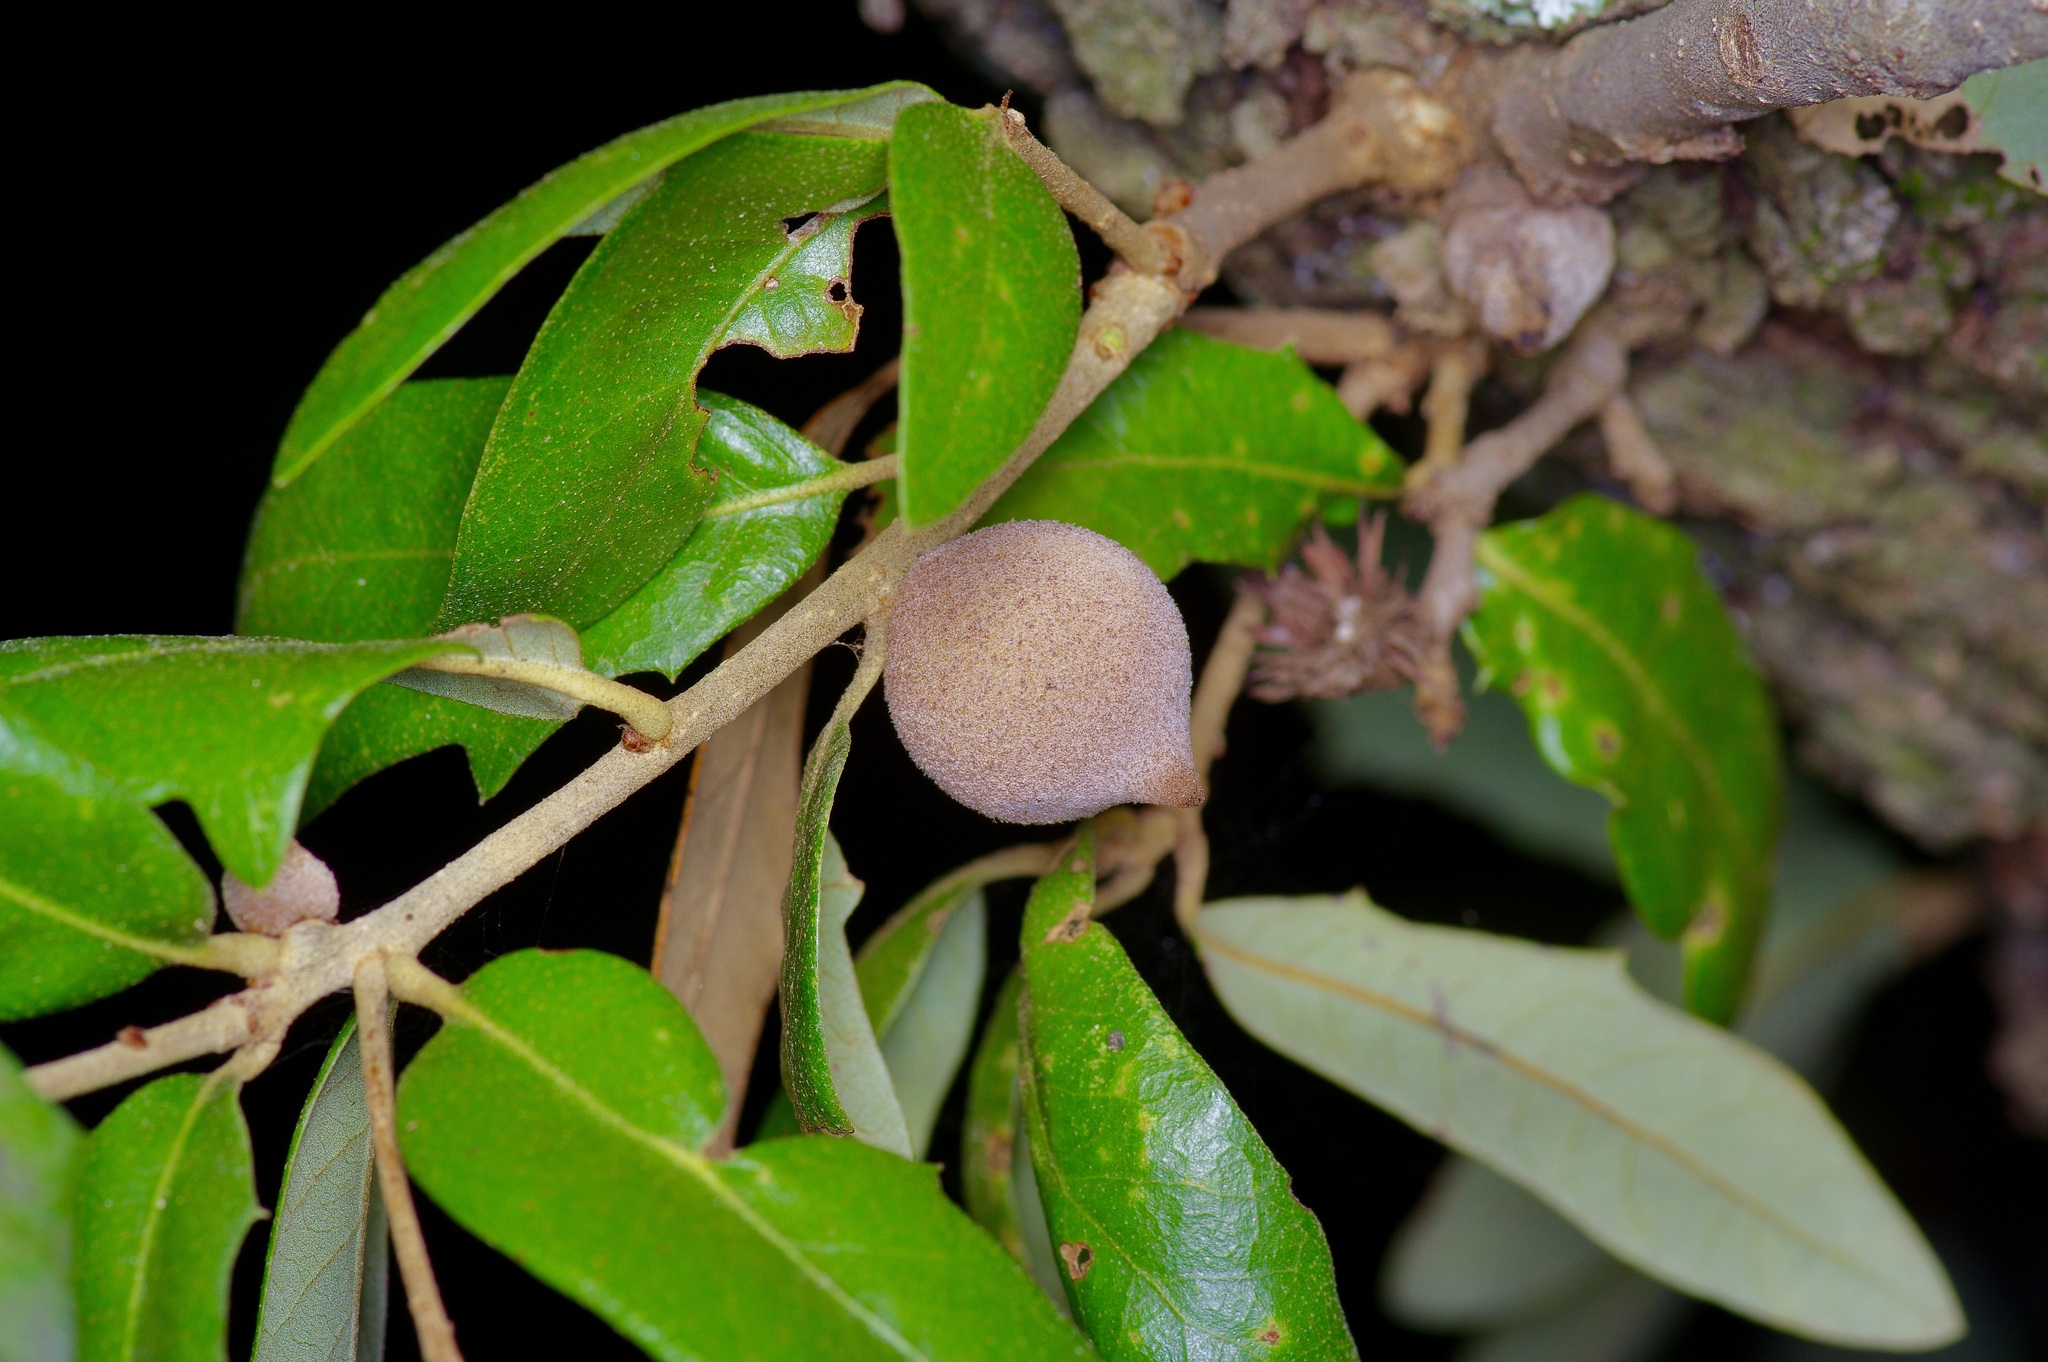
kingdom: Animalia
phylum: Arthropoda
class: Insecta
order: Hymenoptera
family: Cynipidae
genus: Disholcaspis
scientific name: Disholcaspis
